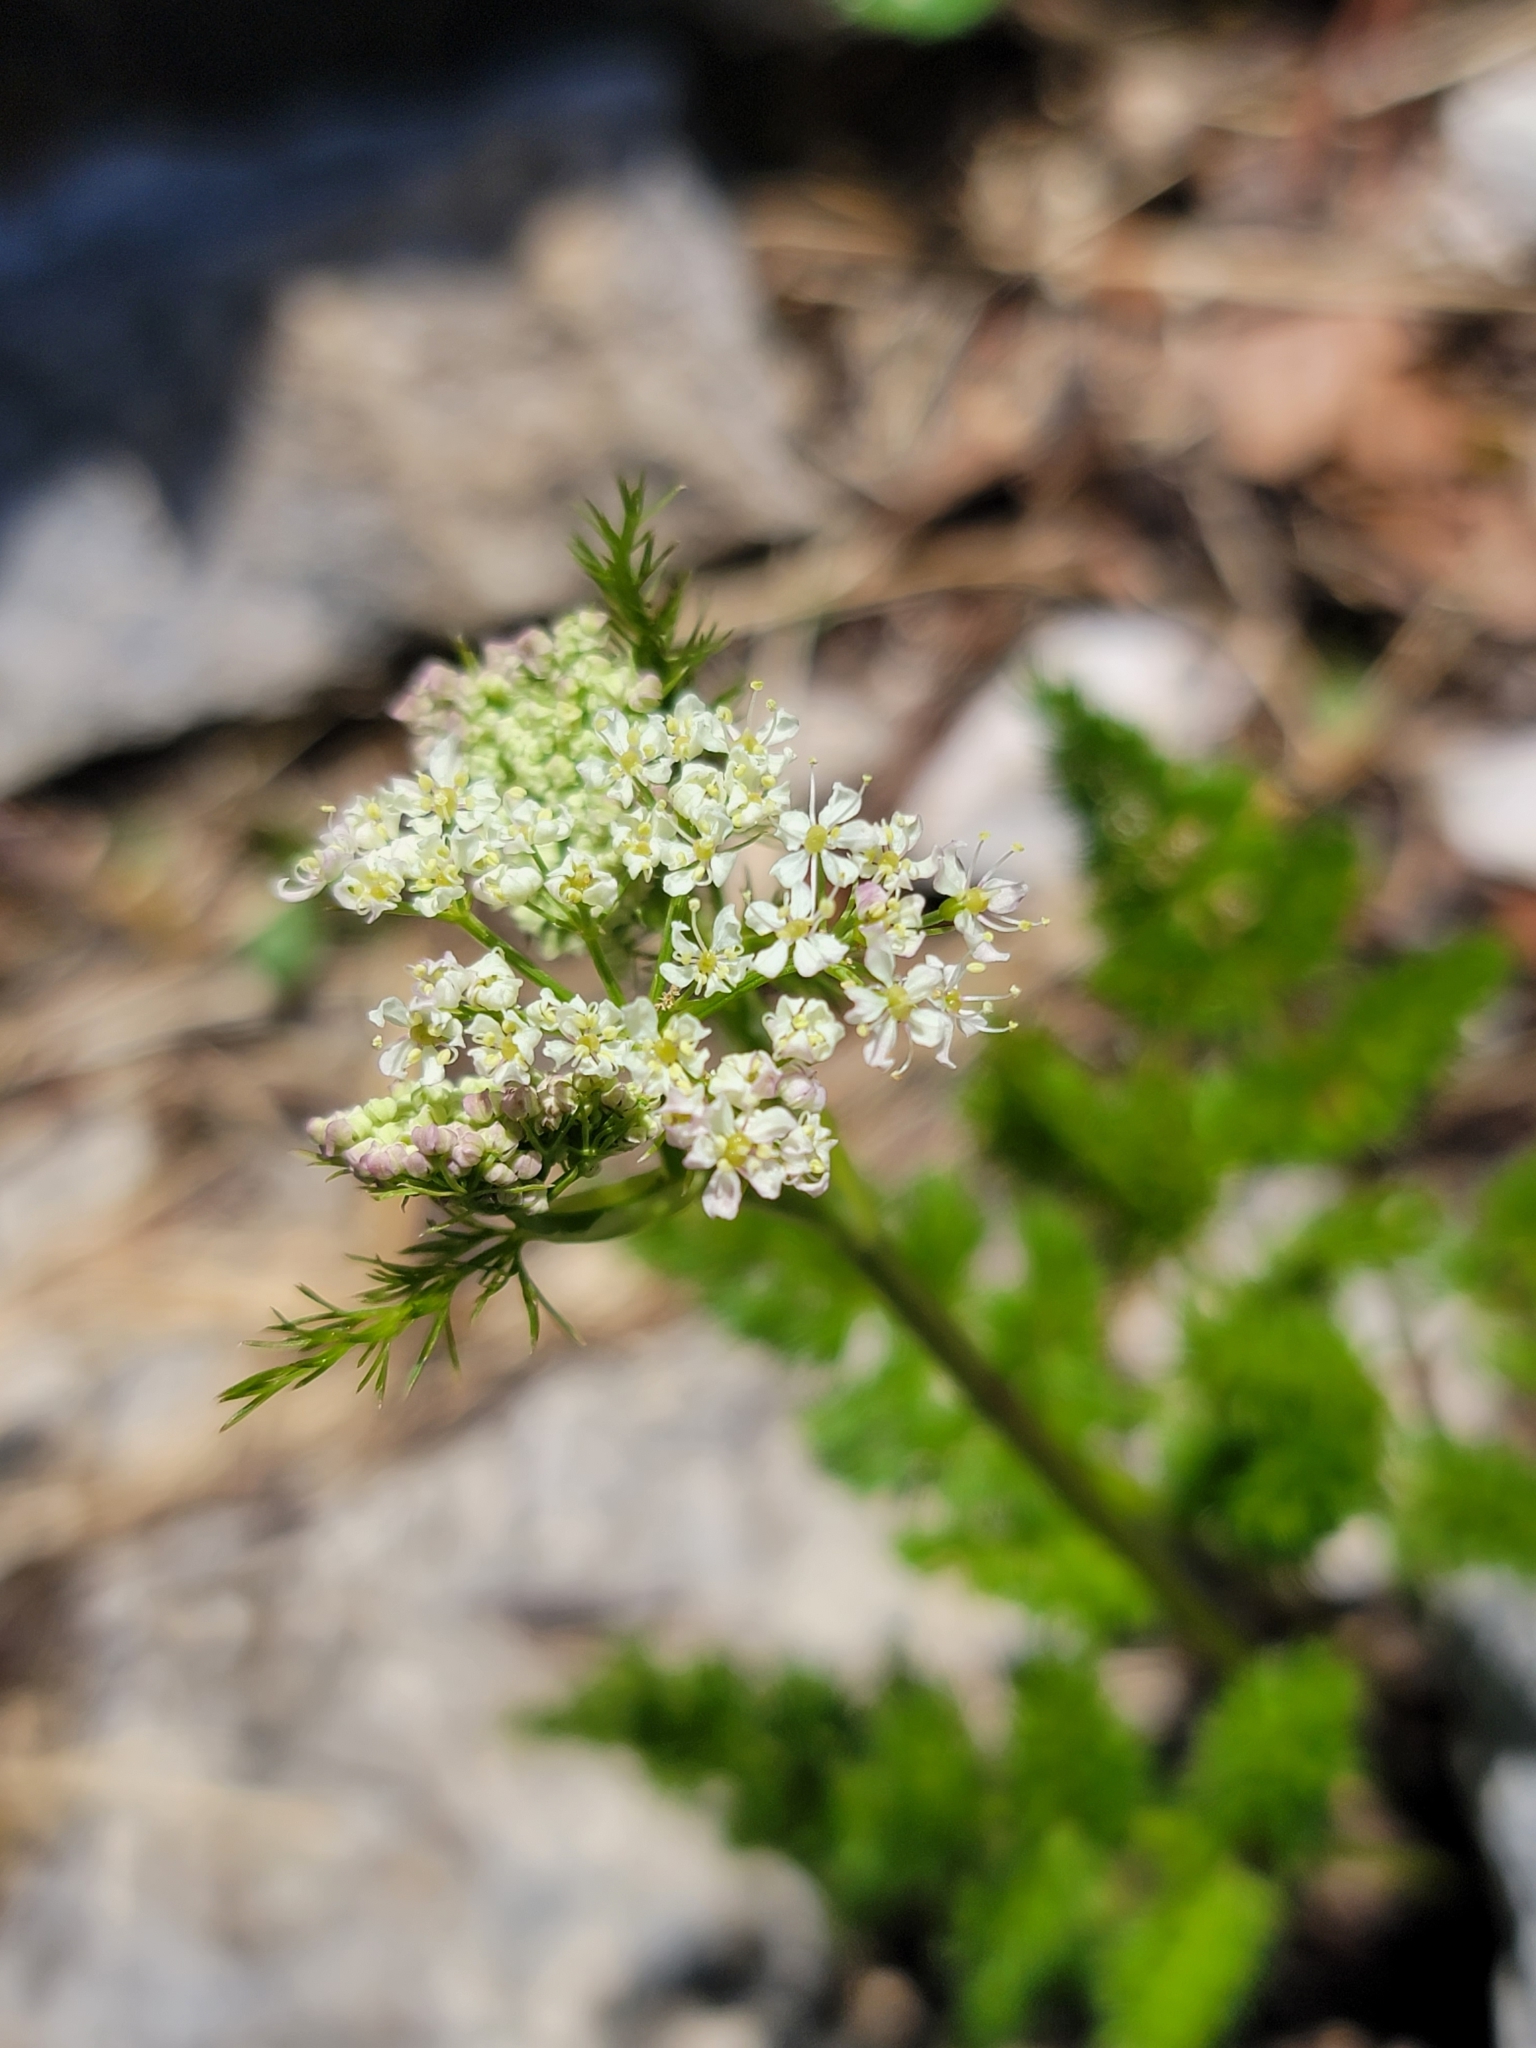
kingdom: Plantae
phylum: Tracheophyta
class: Magnoliopsida
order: Apiales
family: Apiaceae
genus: Meum
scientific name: Meum athamanticum
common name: Spignel
